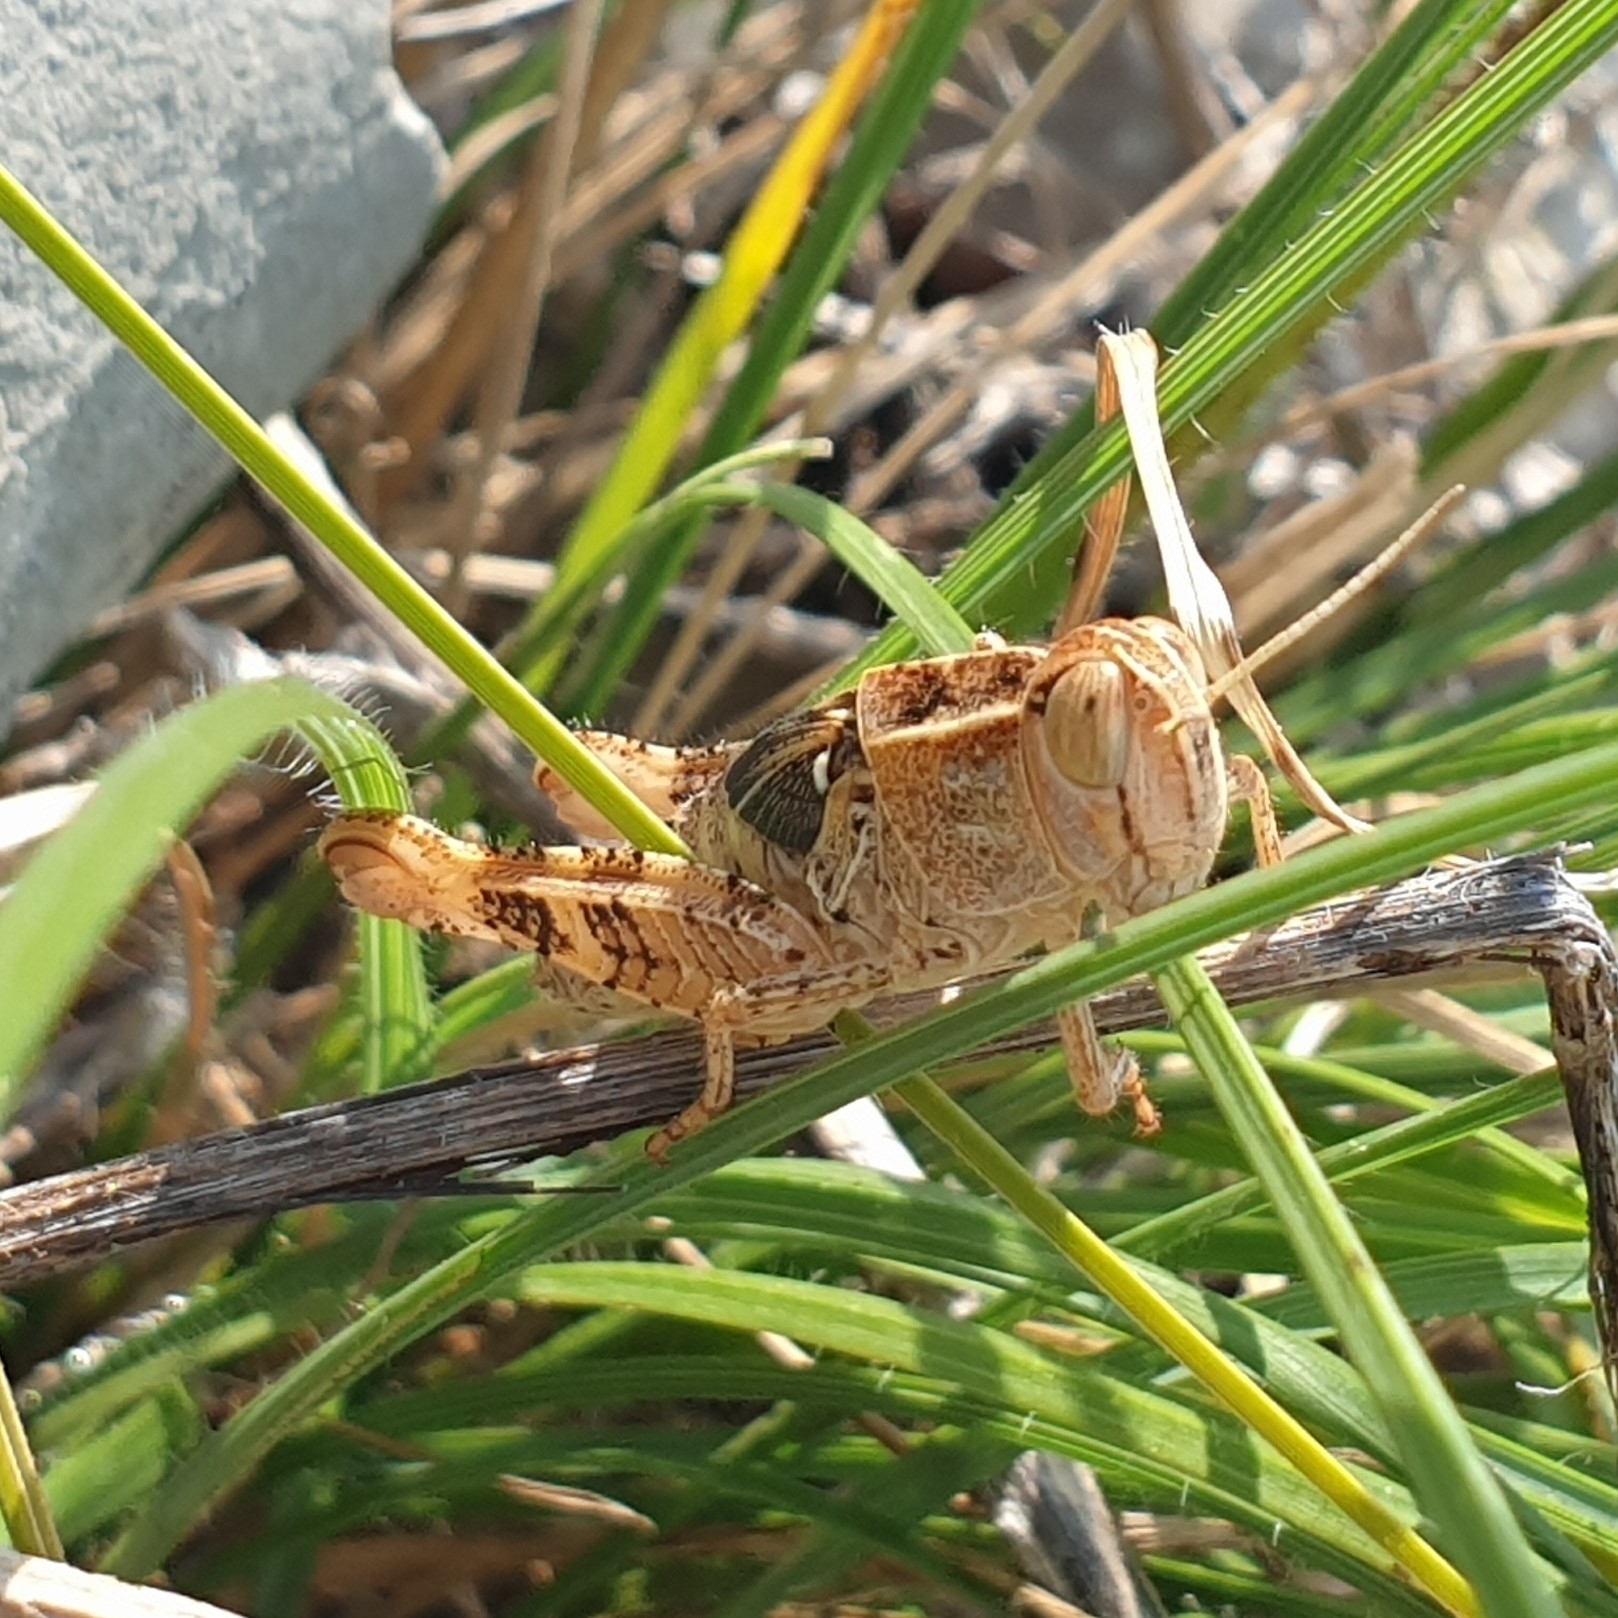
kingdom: Animalia
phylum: Arthropoda
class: Insecta
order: Orthoptera
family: Acrididae
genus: Calliptamus
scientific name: Calliptamus italicus
